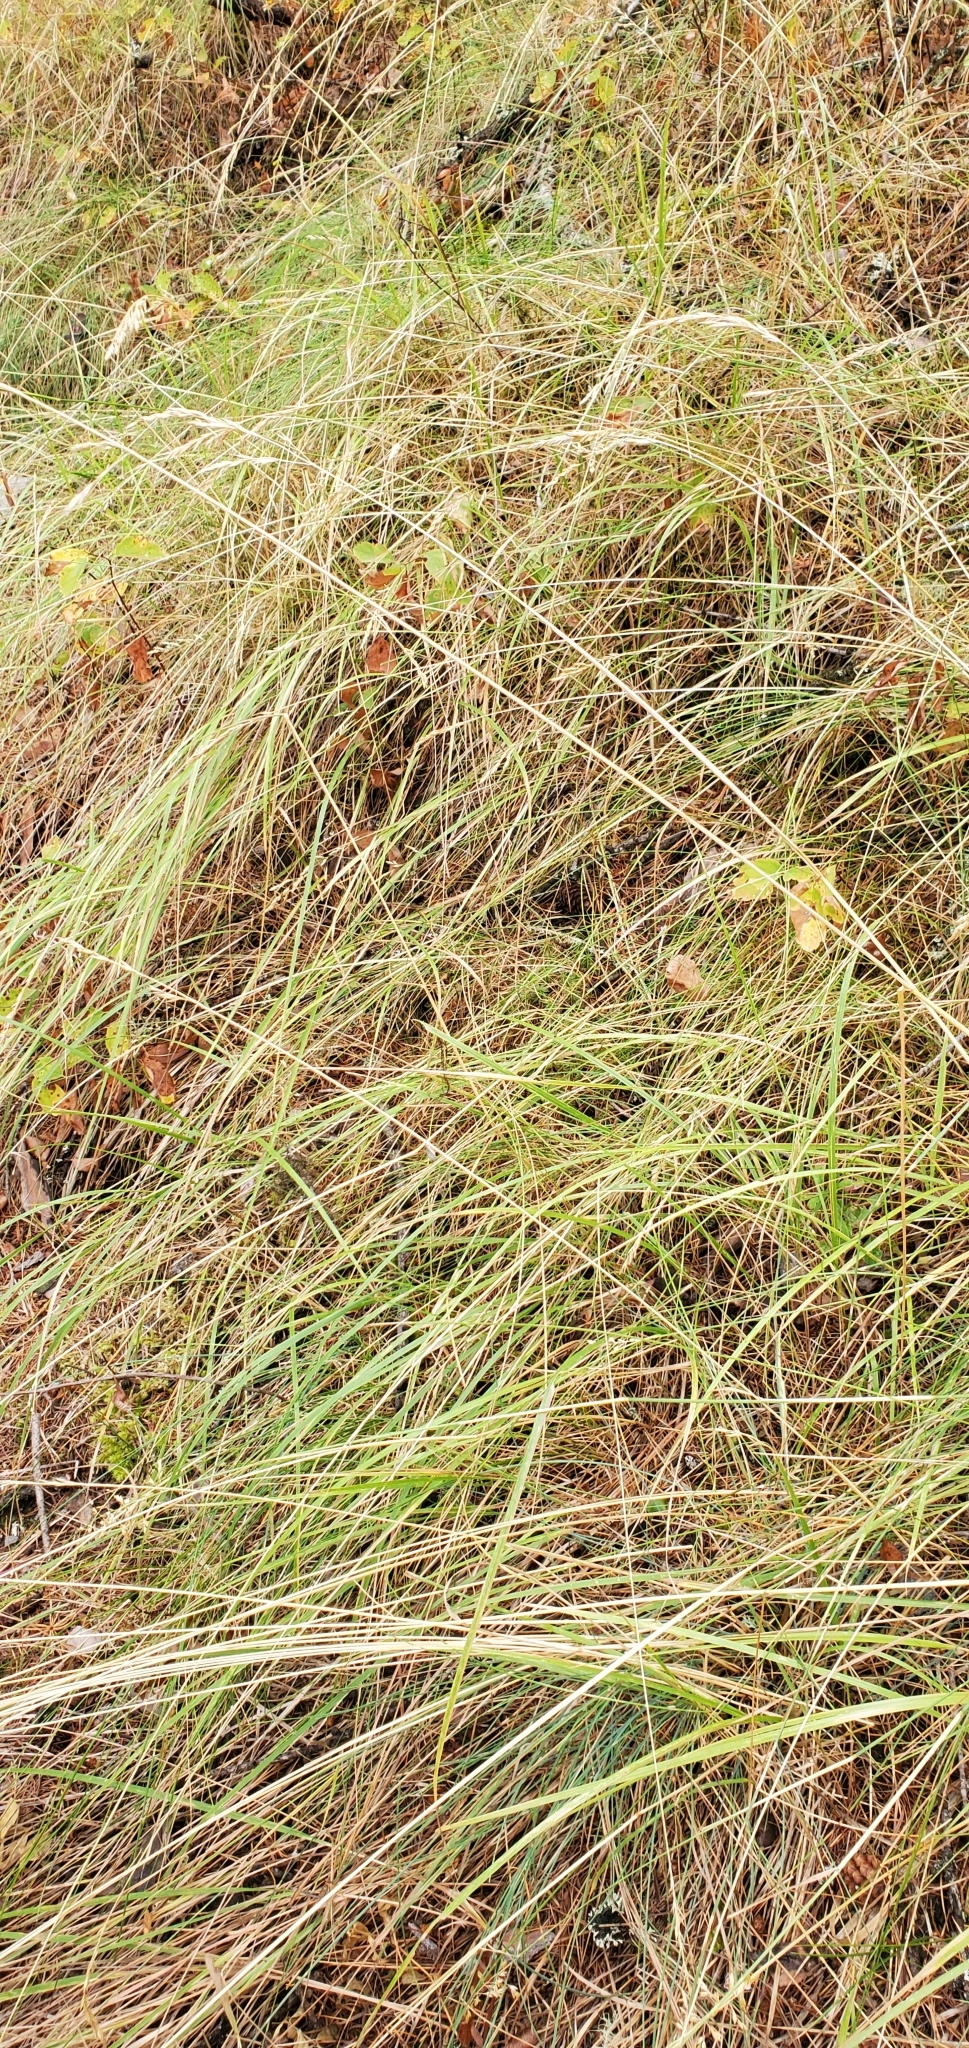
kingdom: Plantae
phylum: Tracheophyta
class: Liliopsida
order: Poales
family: Poaceae
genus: Calamagrostis
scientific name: Calamagrostis rubescens
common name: Pine grass
